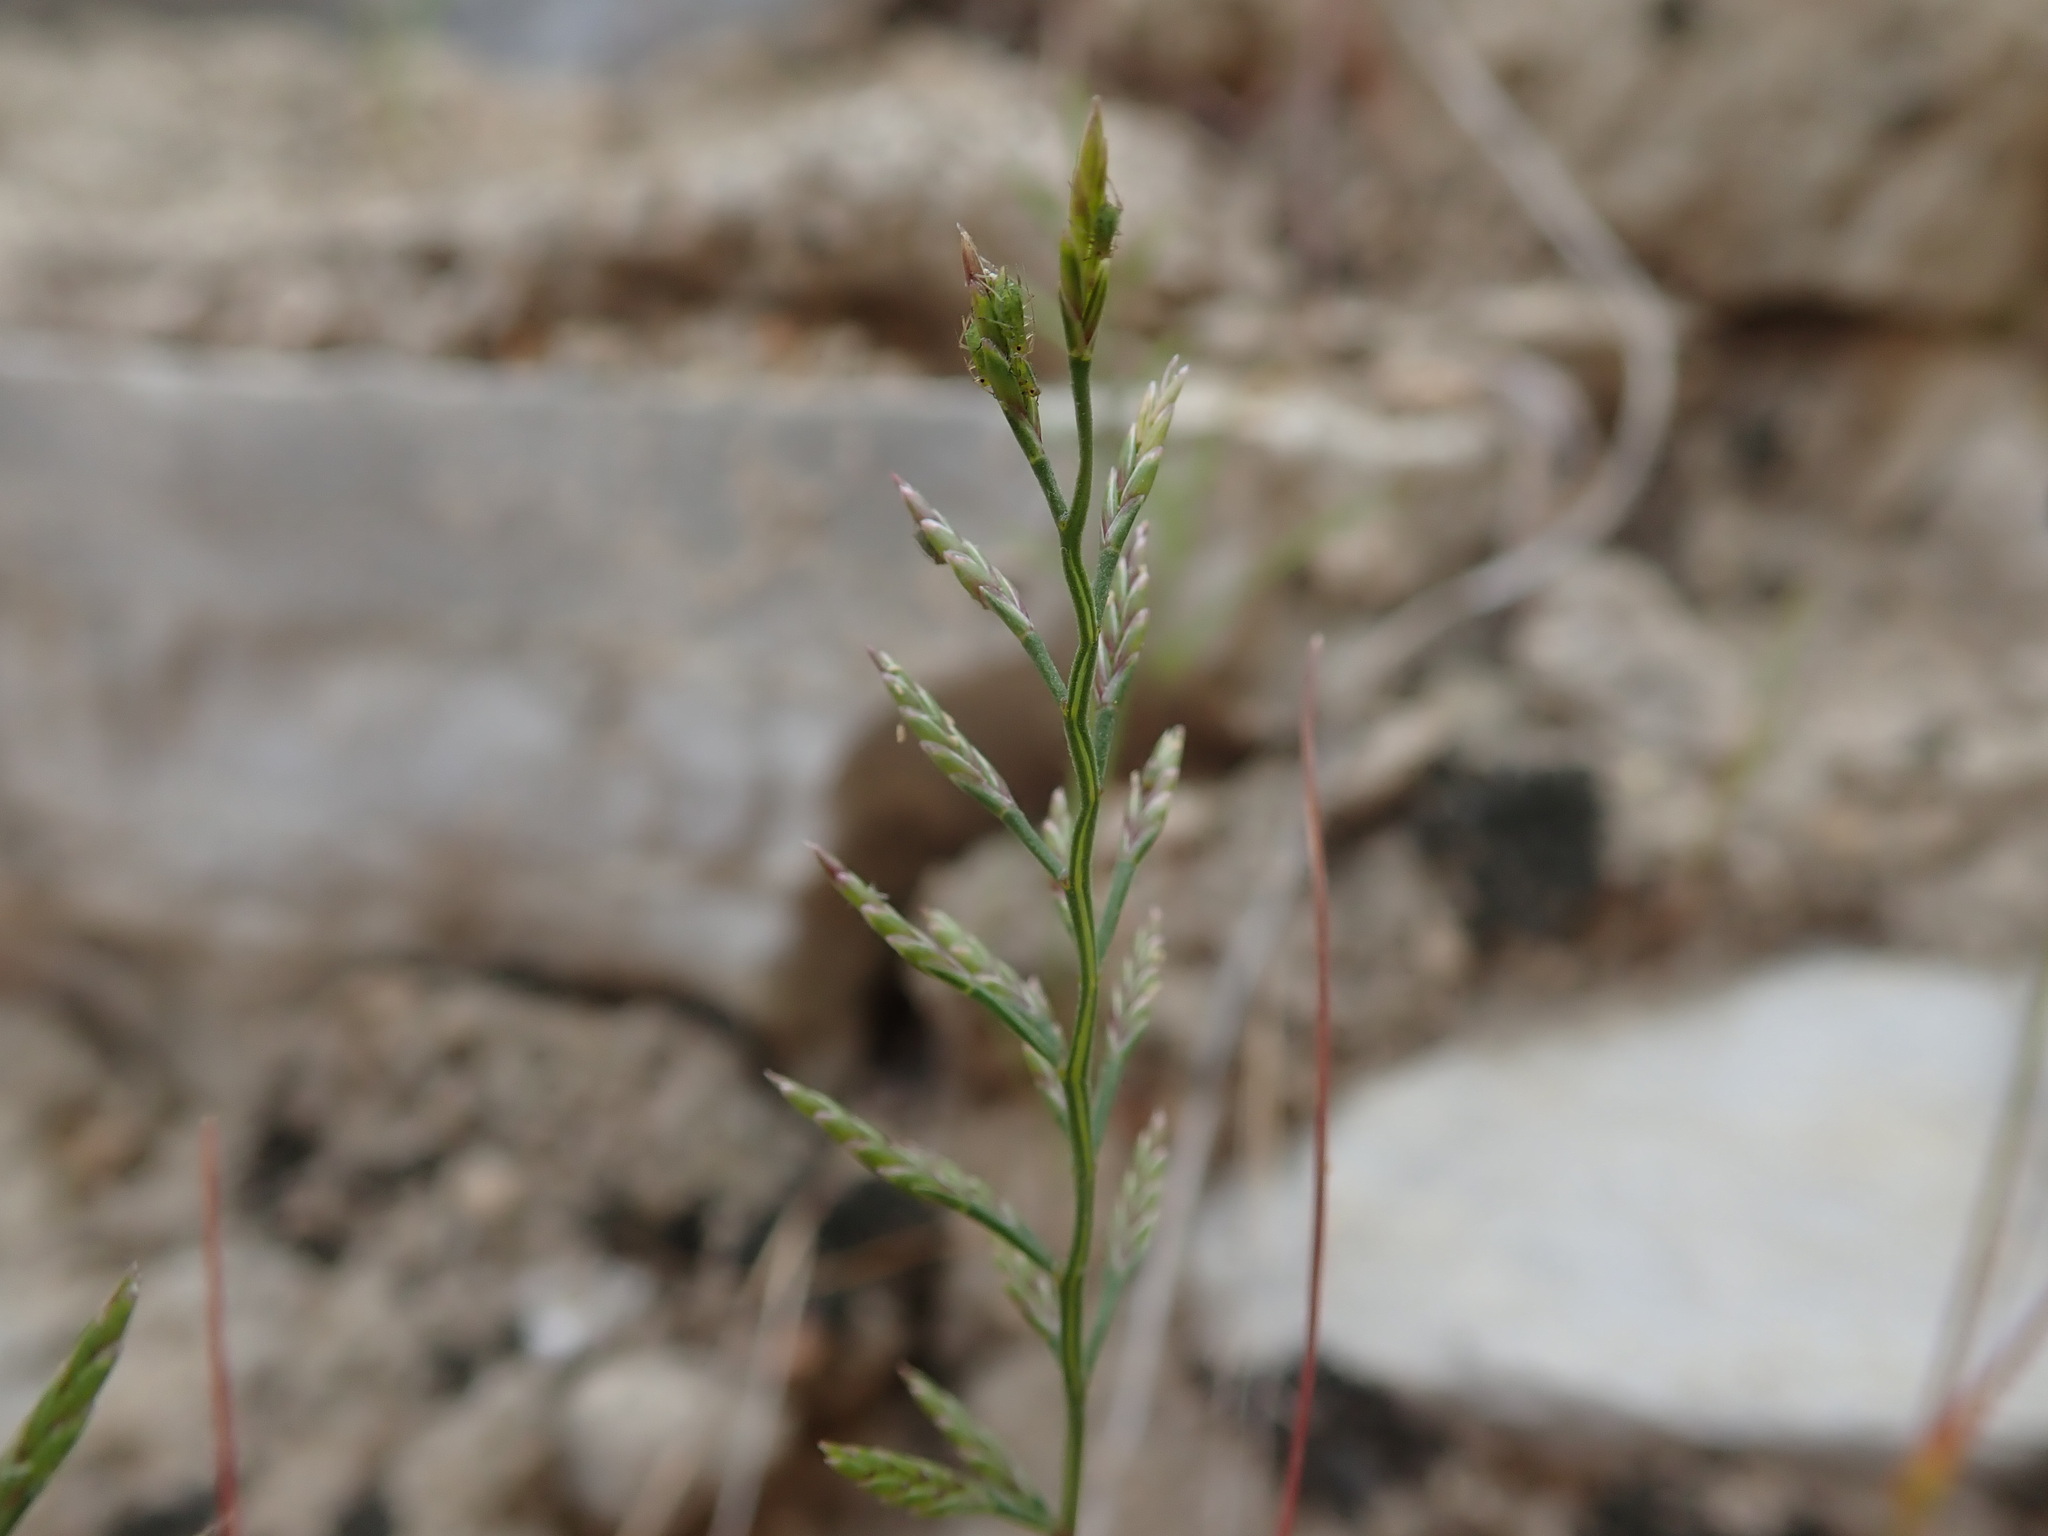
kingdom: Plantae
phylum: Tracheophyta
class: Liliopsida
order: Poales
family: Poaceae
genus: Catapodium
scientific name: Catapodium rigidum
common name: Fern-grass
